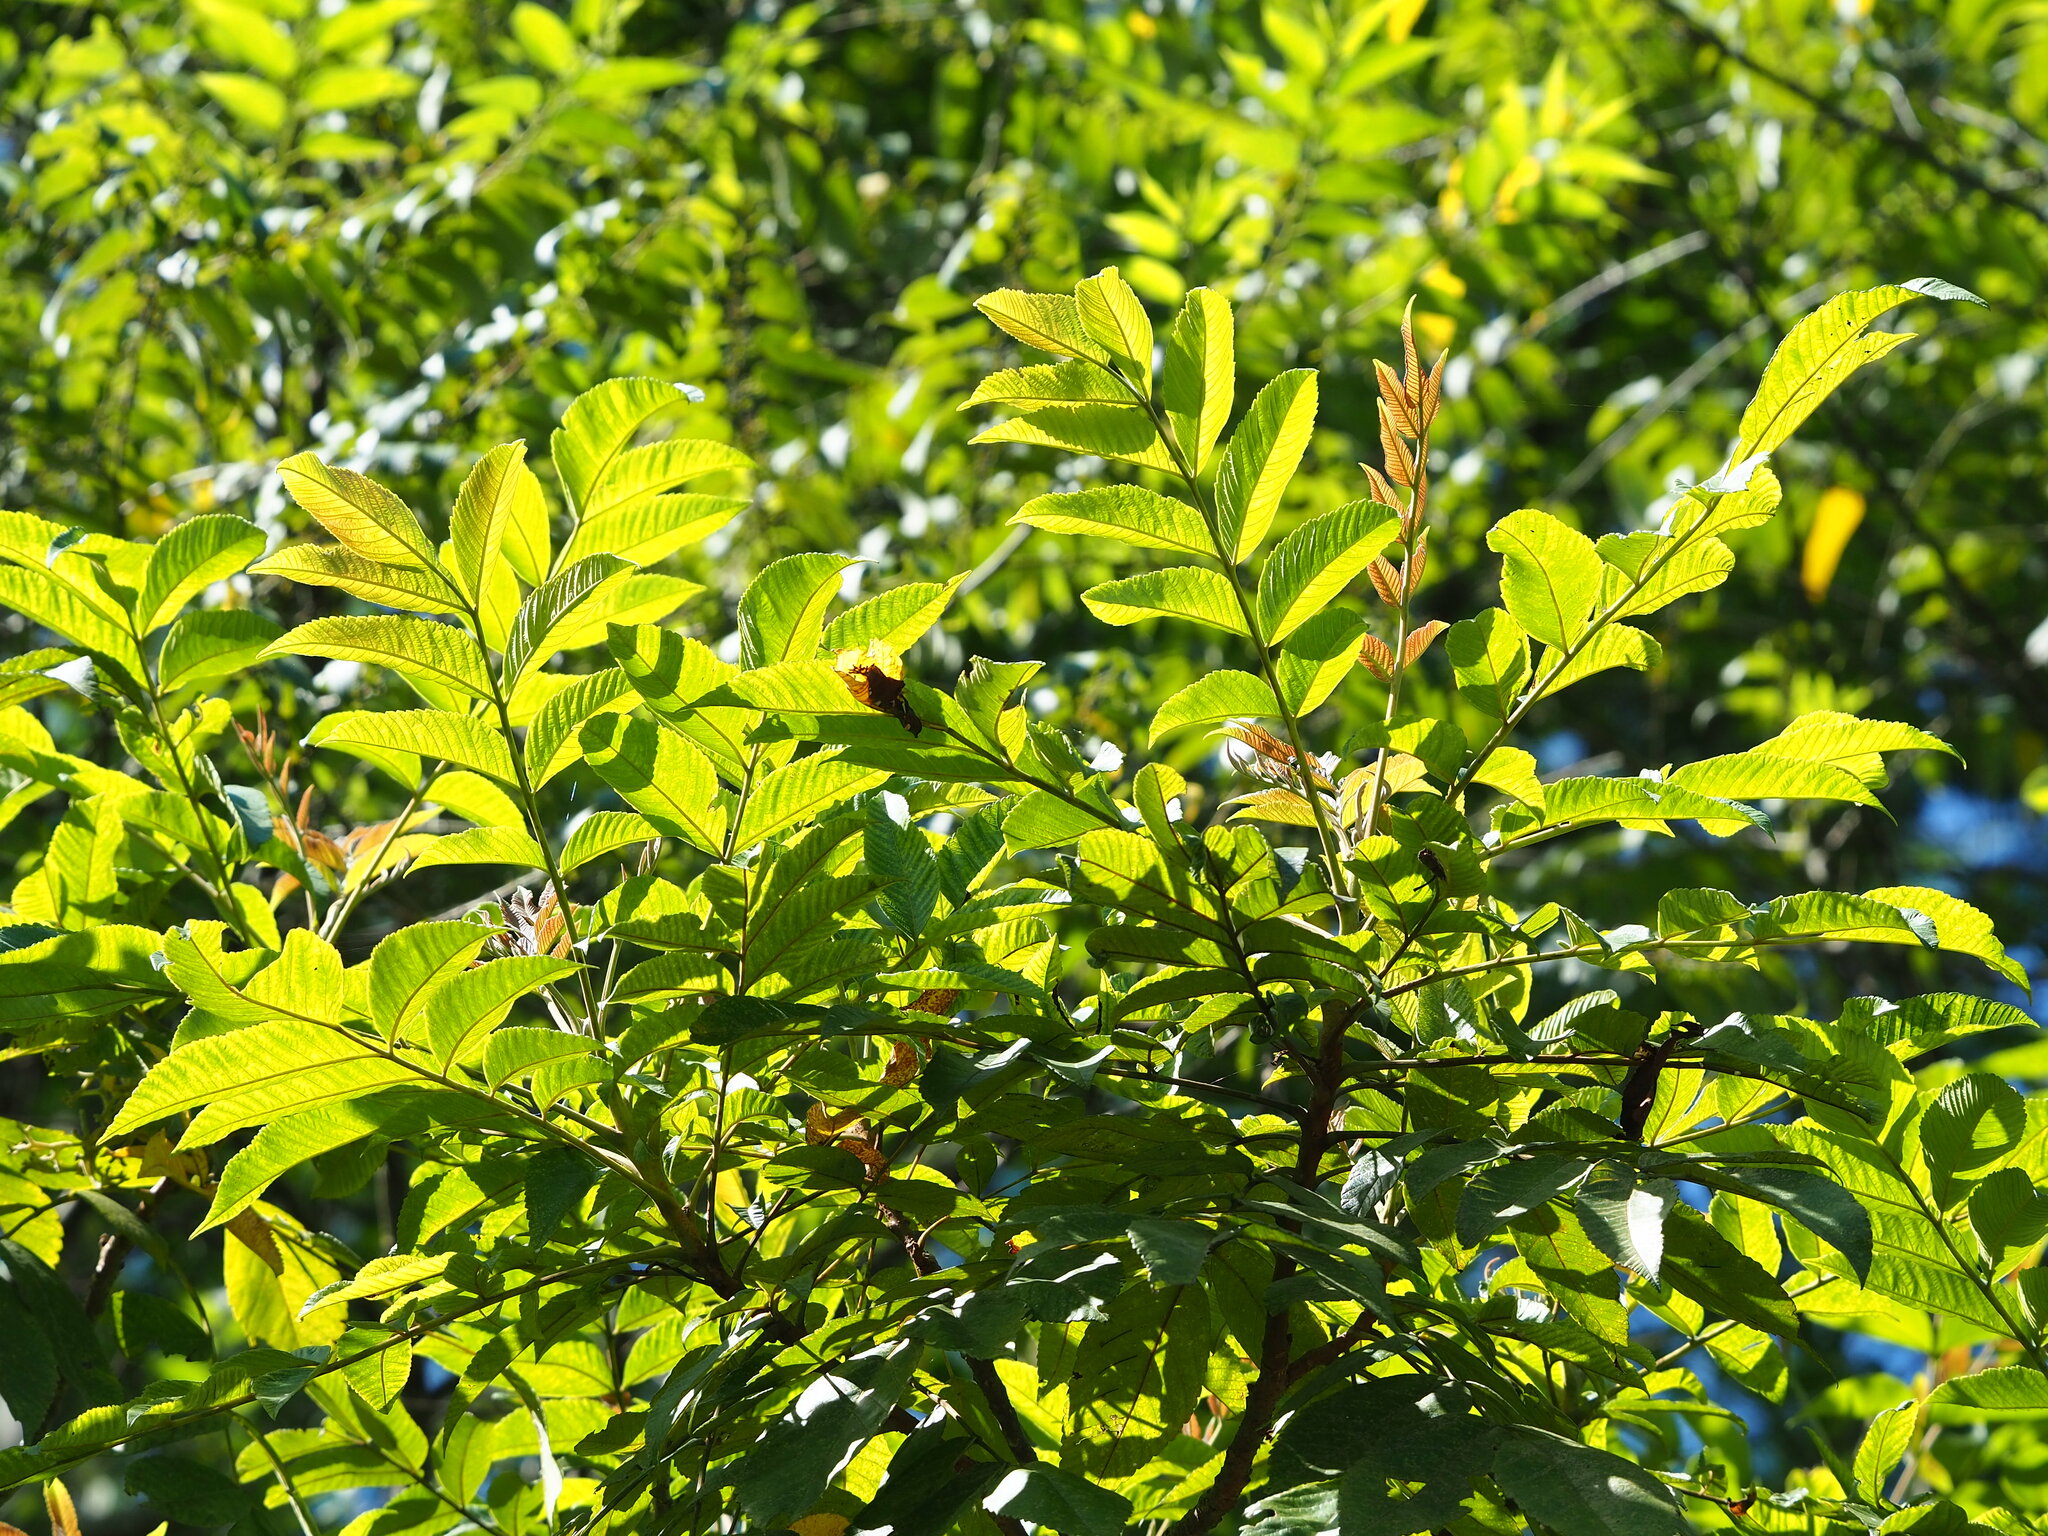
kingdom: Plantae
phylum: Tracheophyta
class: Magnoliopsida
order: Sapindales
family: Anacardiaceae
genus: Rhus
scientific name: Rhus chinensis
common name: Chinese gall
